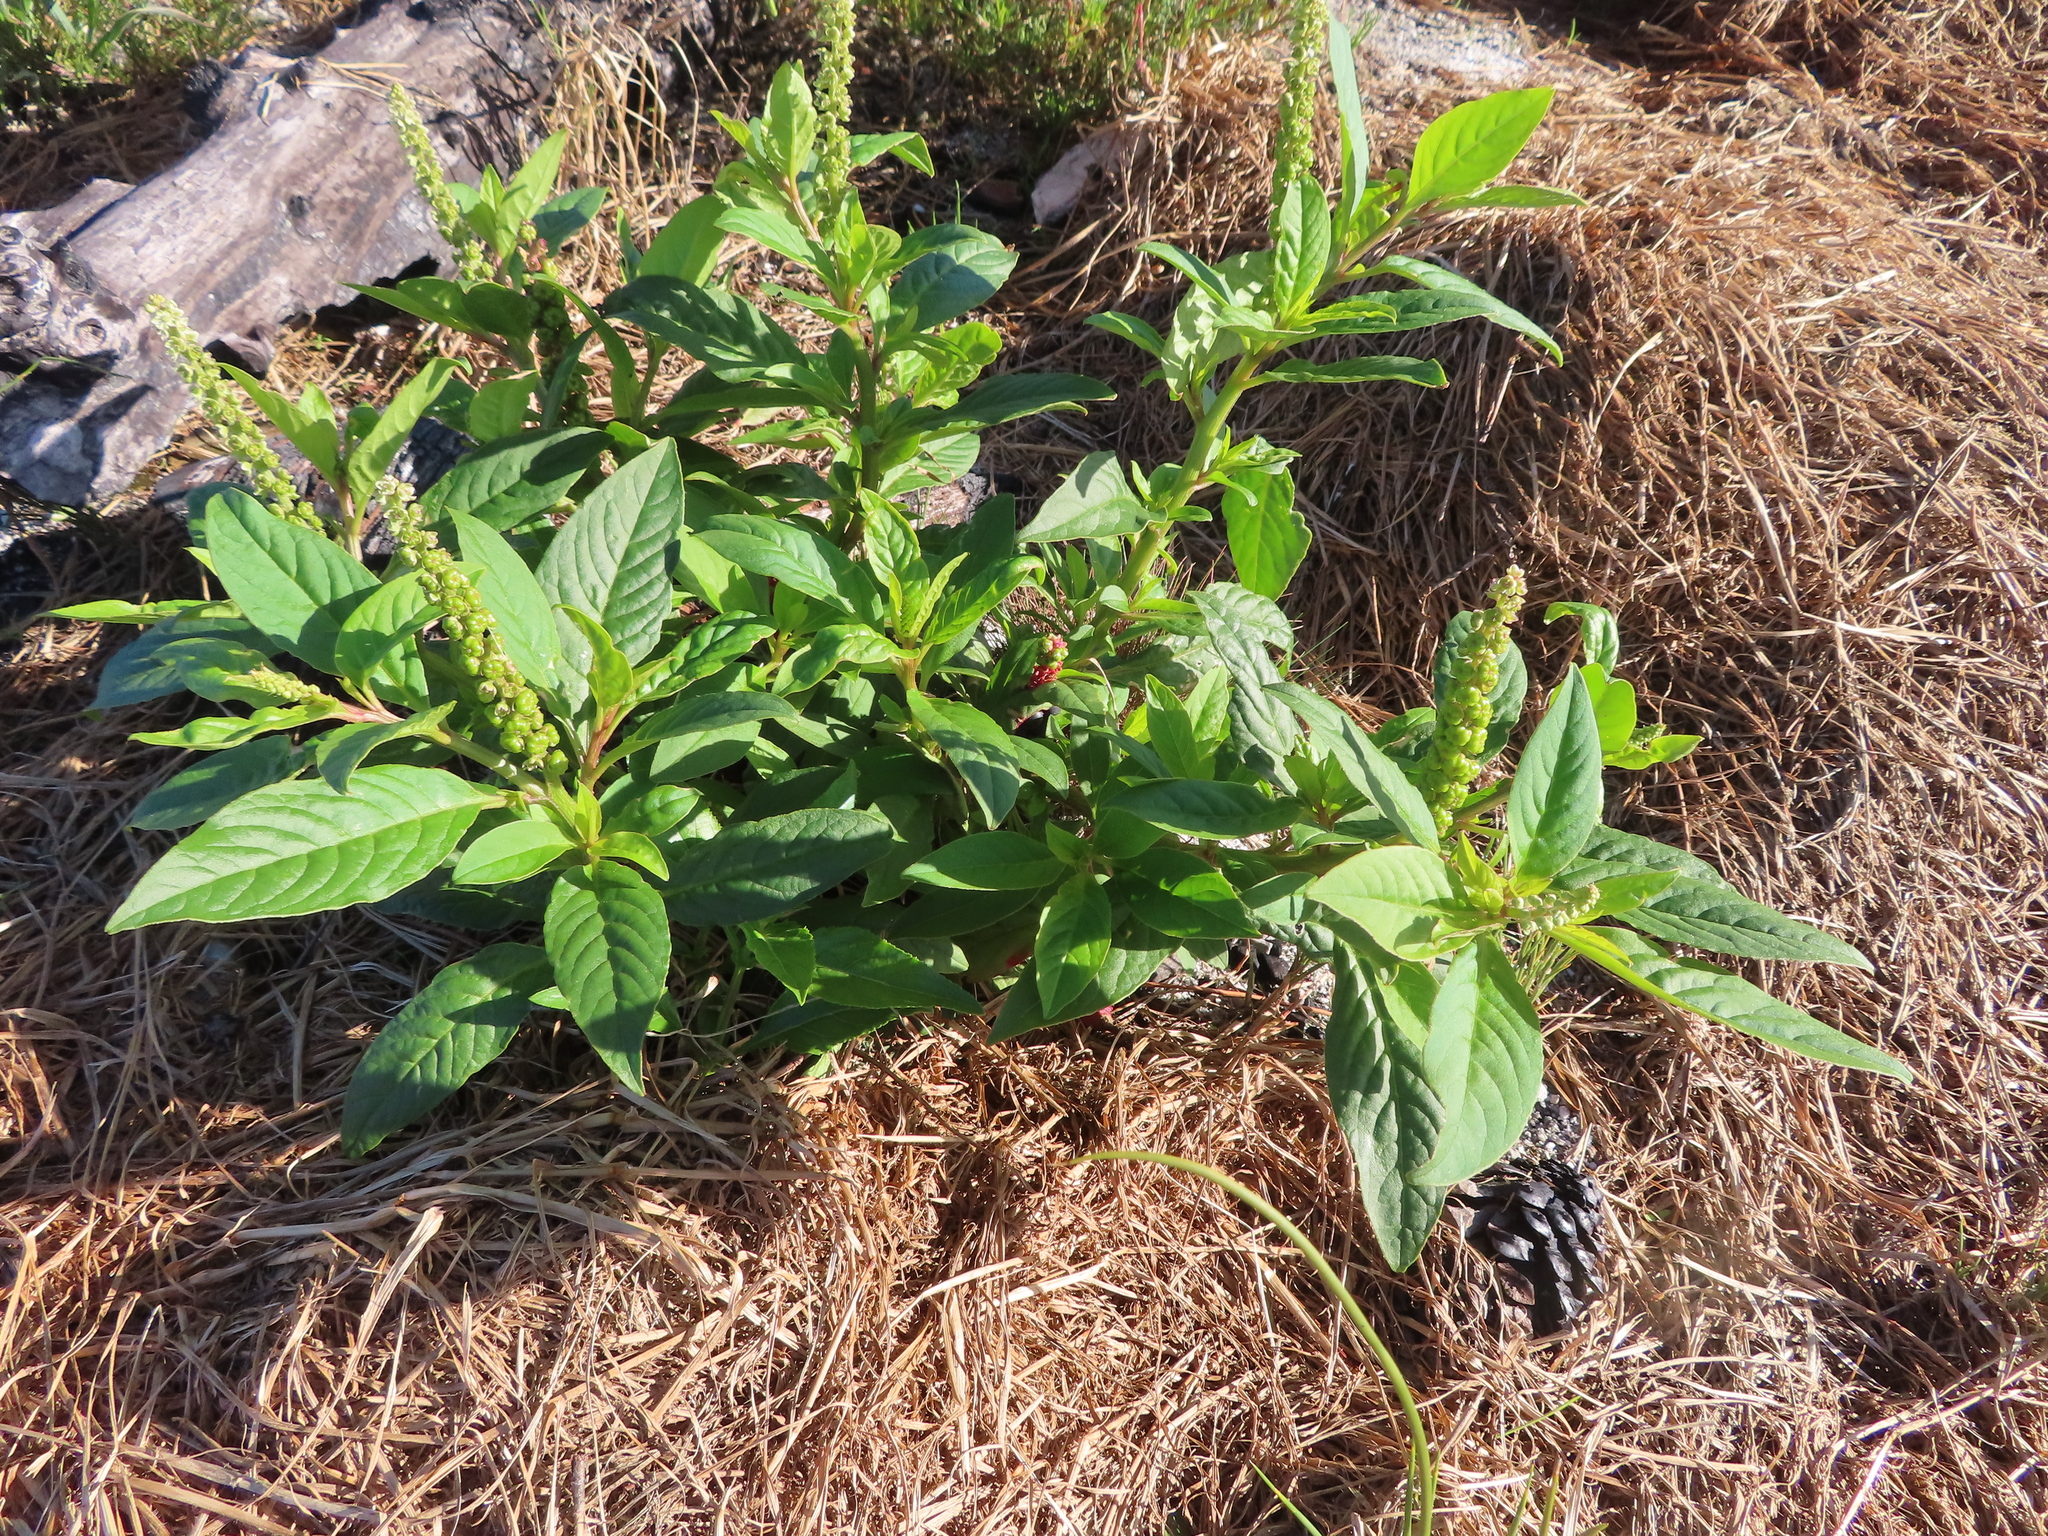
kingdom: Plantae
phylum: Tracheophyta
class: Magnoliopsida
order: Caryophyllales
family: Phytolaccaceae
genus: Phytolacca
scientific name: Phytolacca icosandra
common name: Button pokeweed
